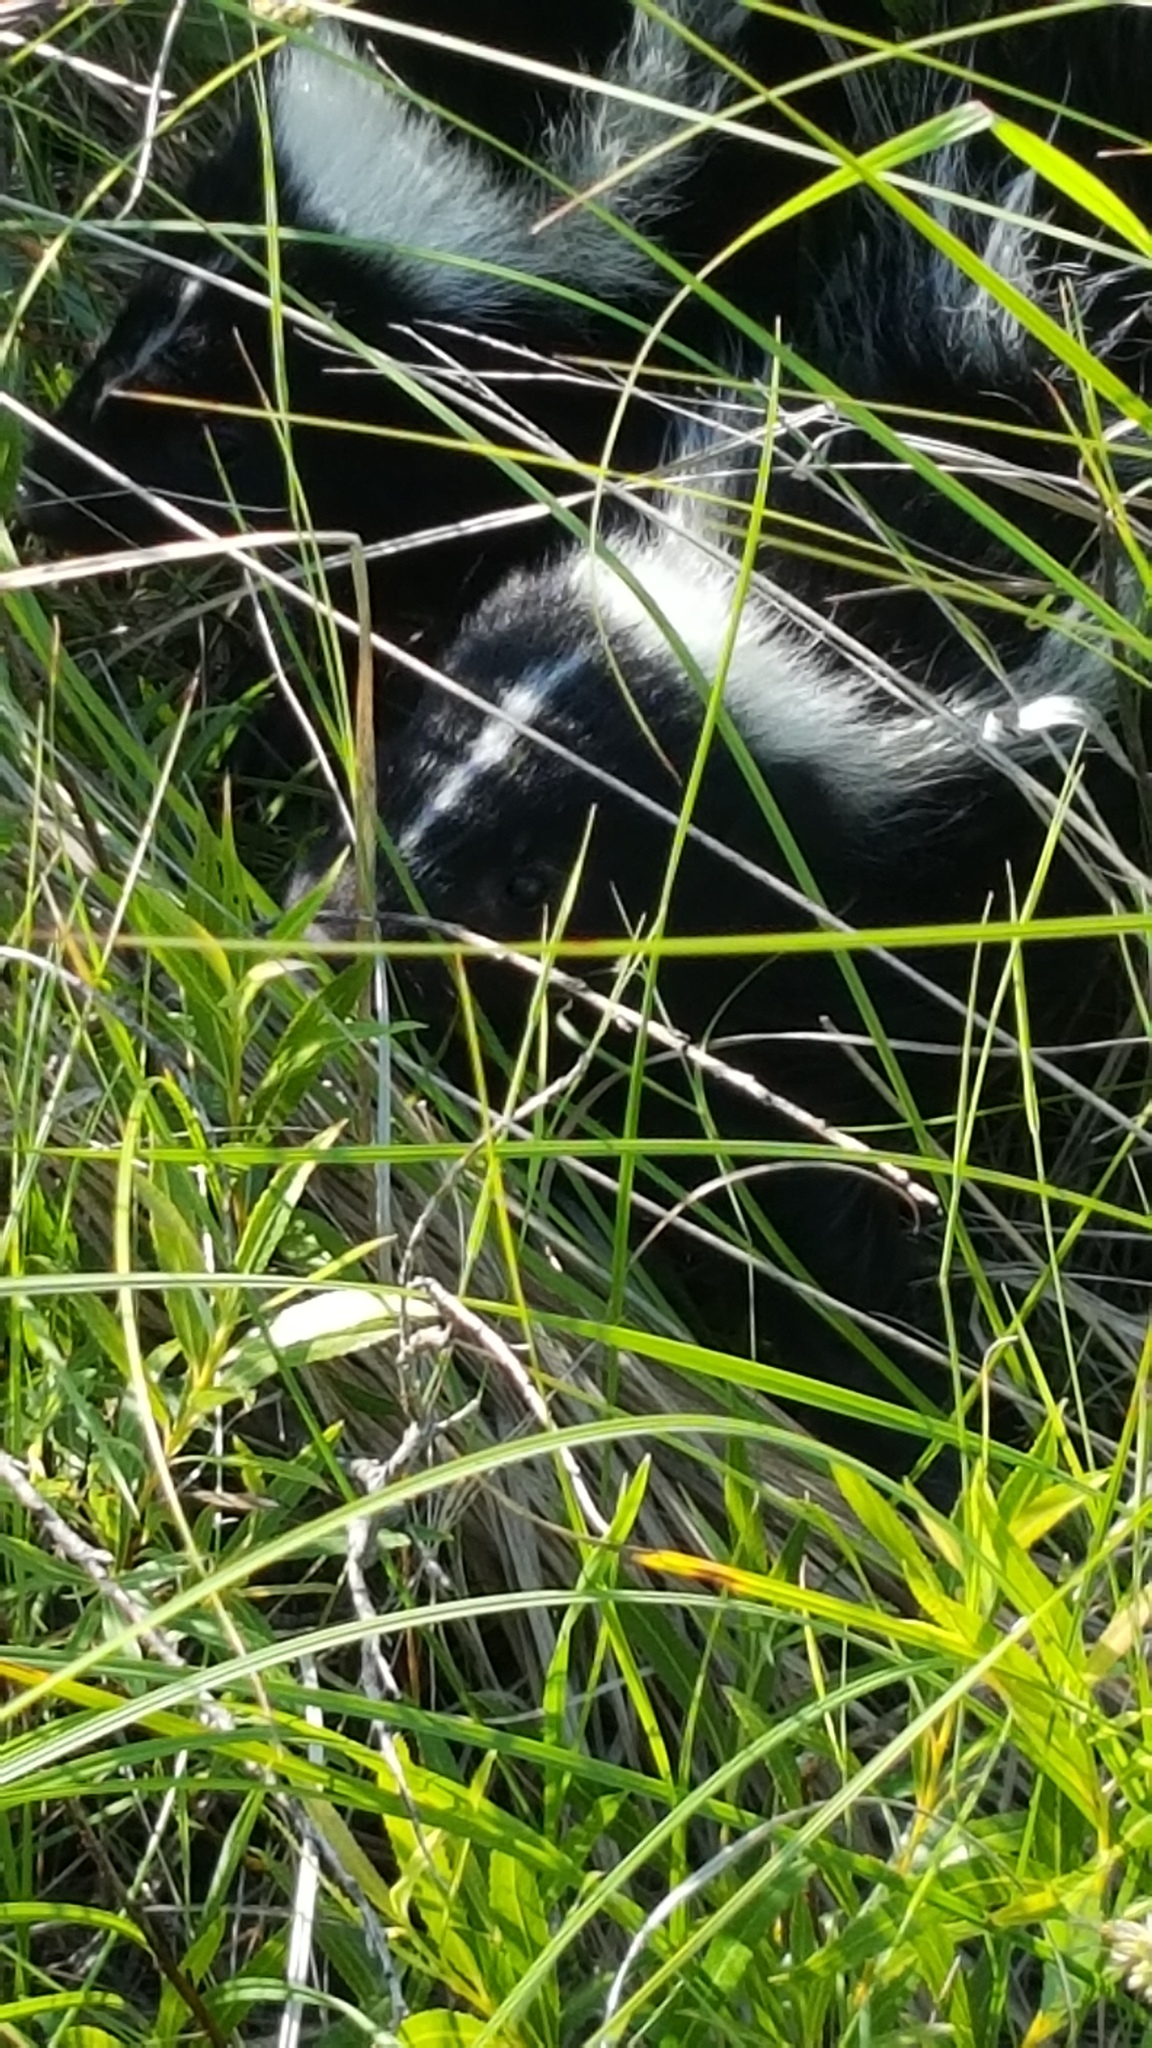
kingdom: Animalia
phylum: Chordata
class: Mammalia
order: Carnivora
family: Mephitidae
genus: Mephitis
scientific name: Mephitis mephitis
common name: Striped skunk
